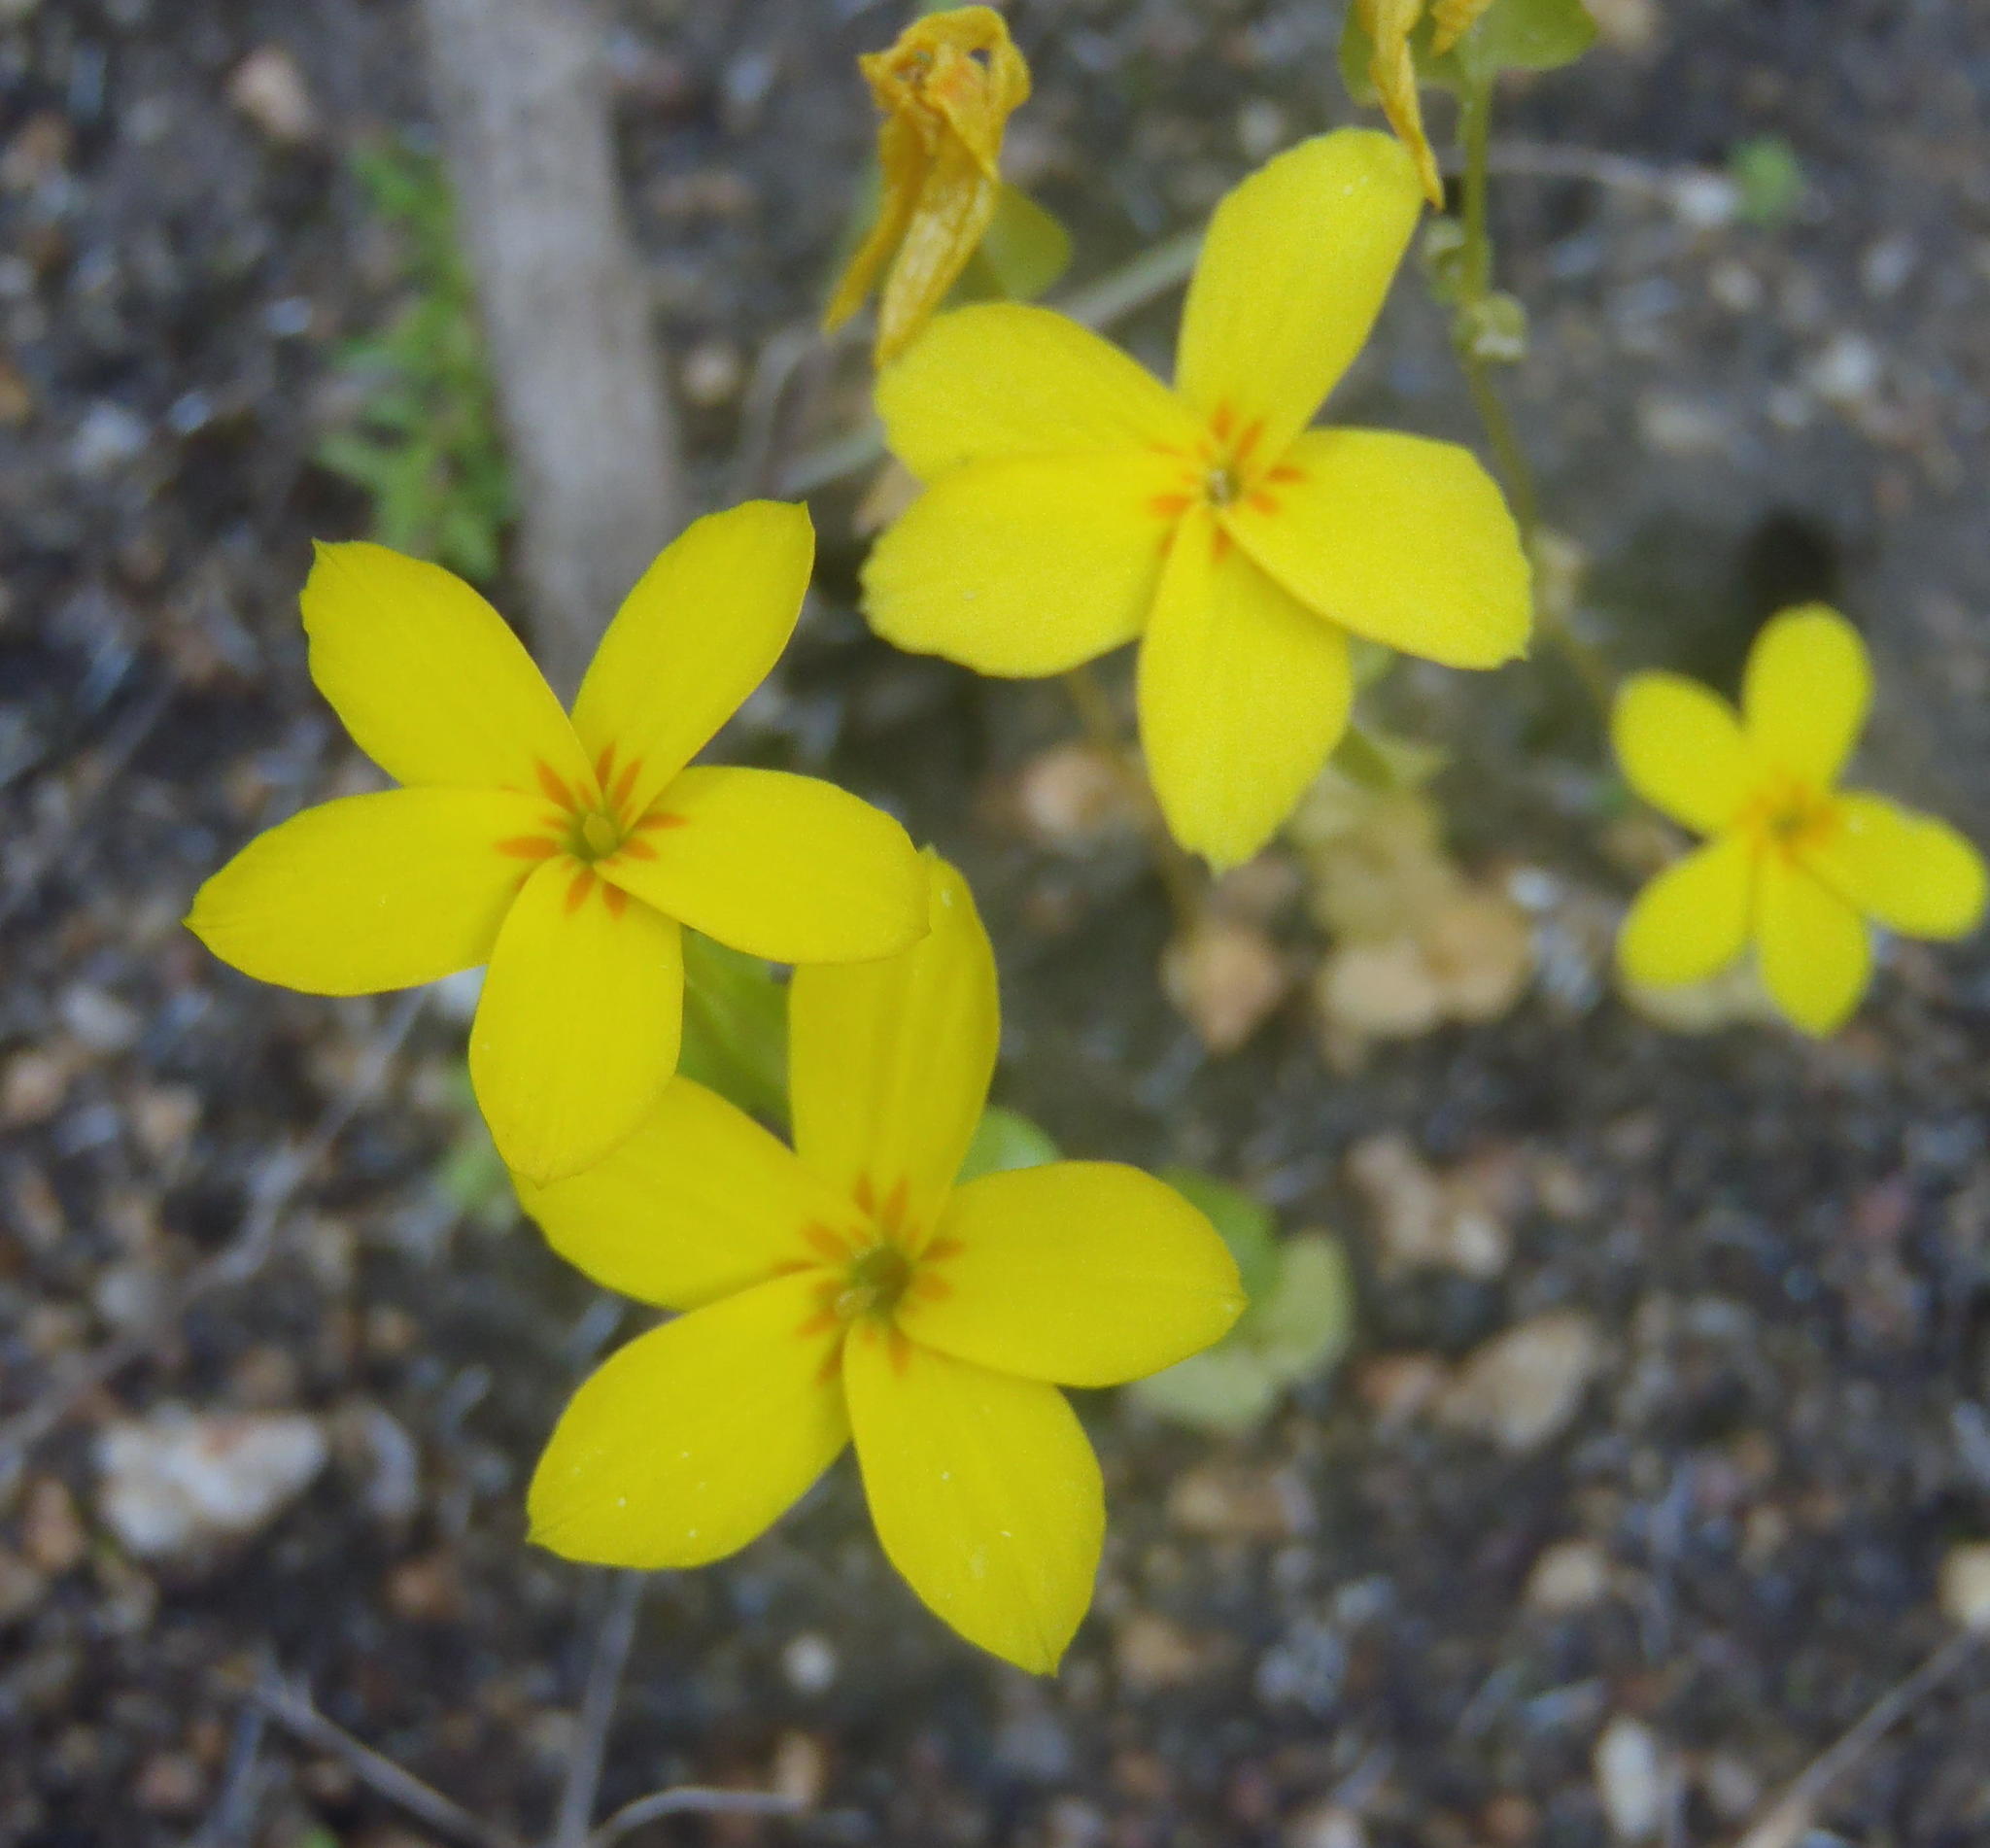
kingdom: Plantae
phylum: Tracheophyta
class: Magnoliopsida
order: Gentianales
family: Gentianaceae
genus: Sebaea
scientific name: Sebaea exacoides
